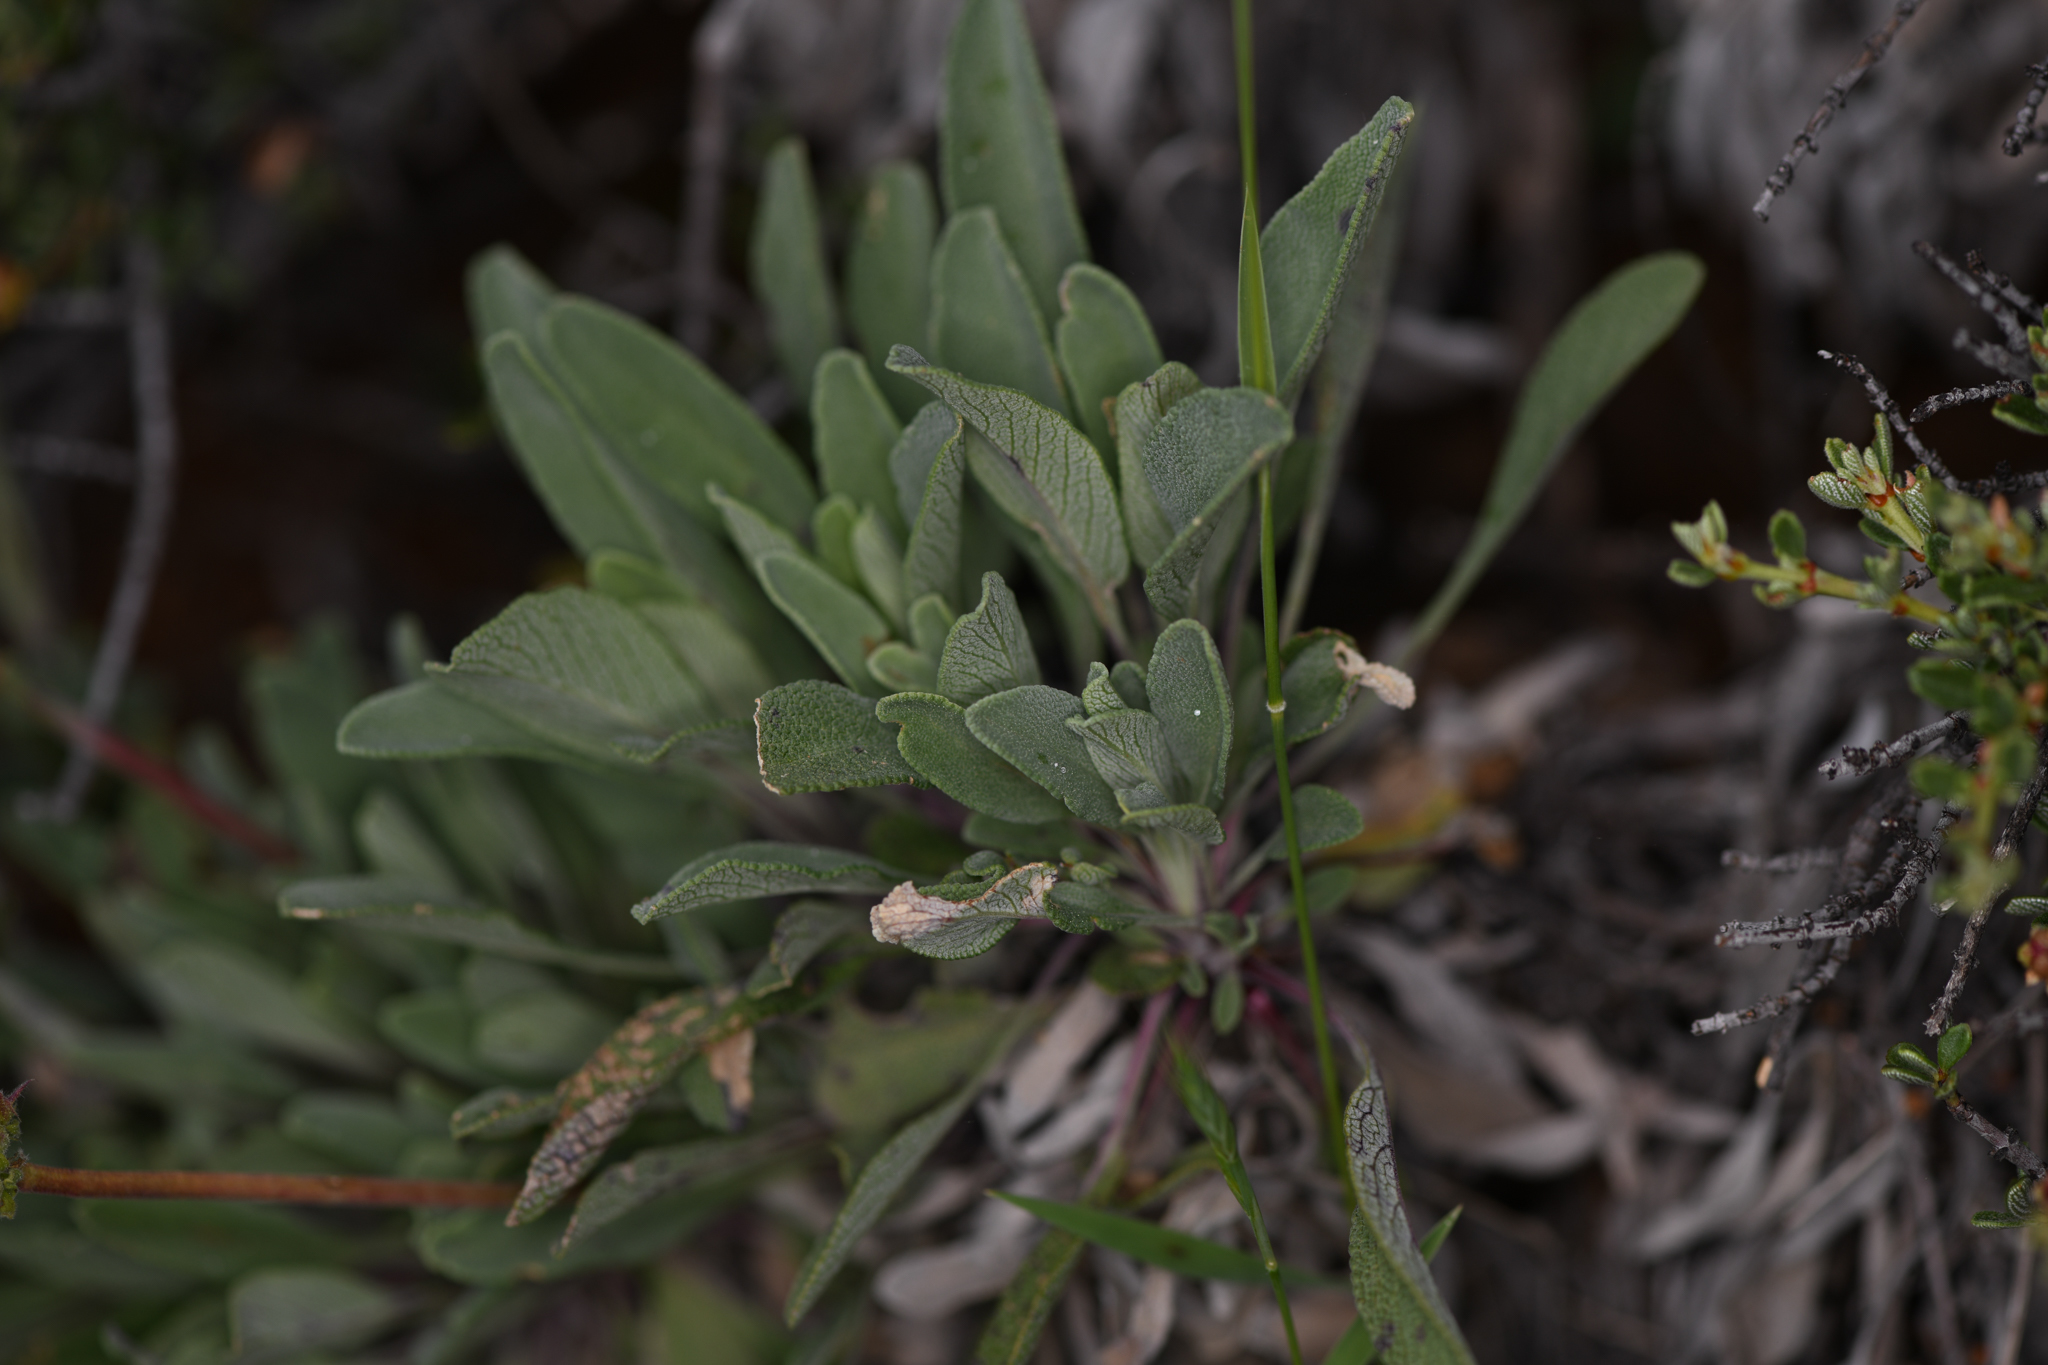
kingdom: Plantae
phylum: Tracheophyta
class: Magnoliopsida
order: Lamiales
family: Lamiaceae
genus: Salvia
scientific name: Salvia sonomensis
